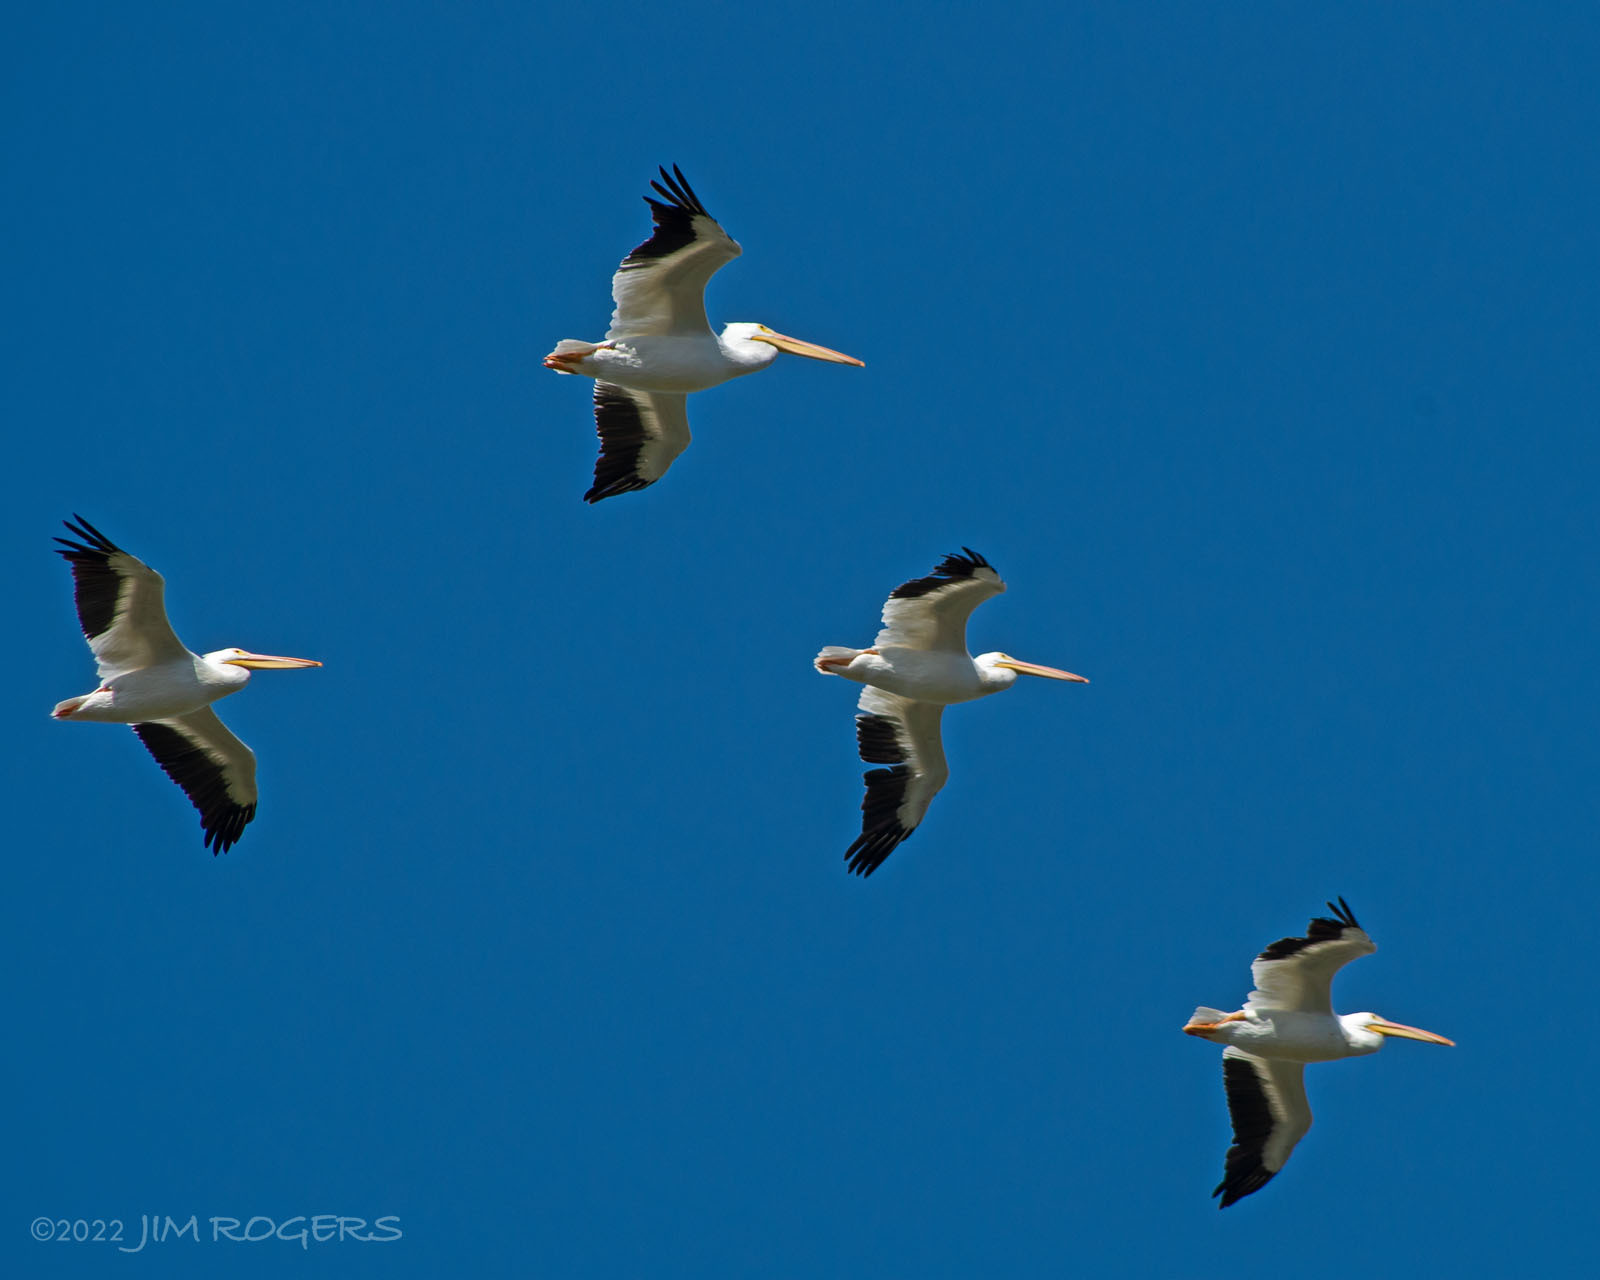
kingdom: Animalia
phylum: Chordata
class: Aves
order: Pelecaniformes
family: Pelecanidae
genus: Pelecanus
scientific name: Pelecanus erythrorhynchos
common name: American white pelican
